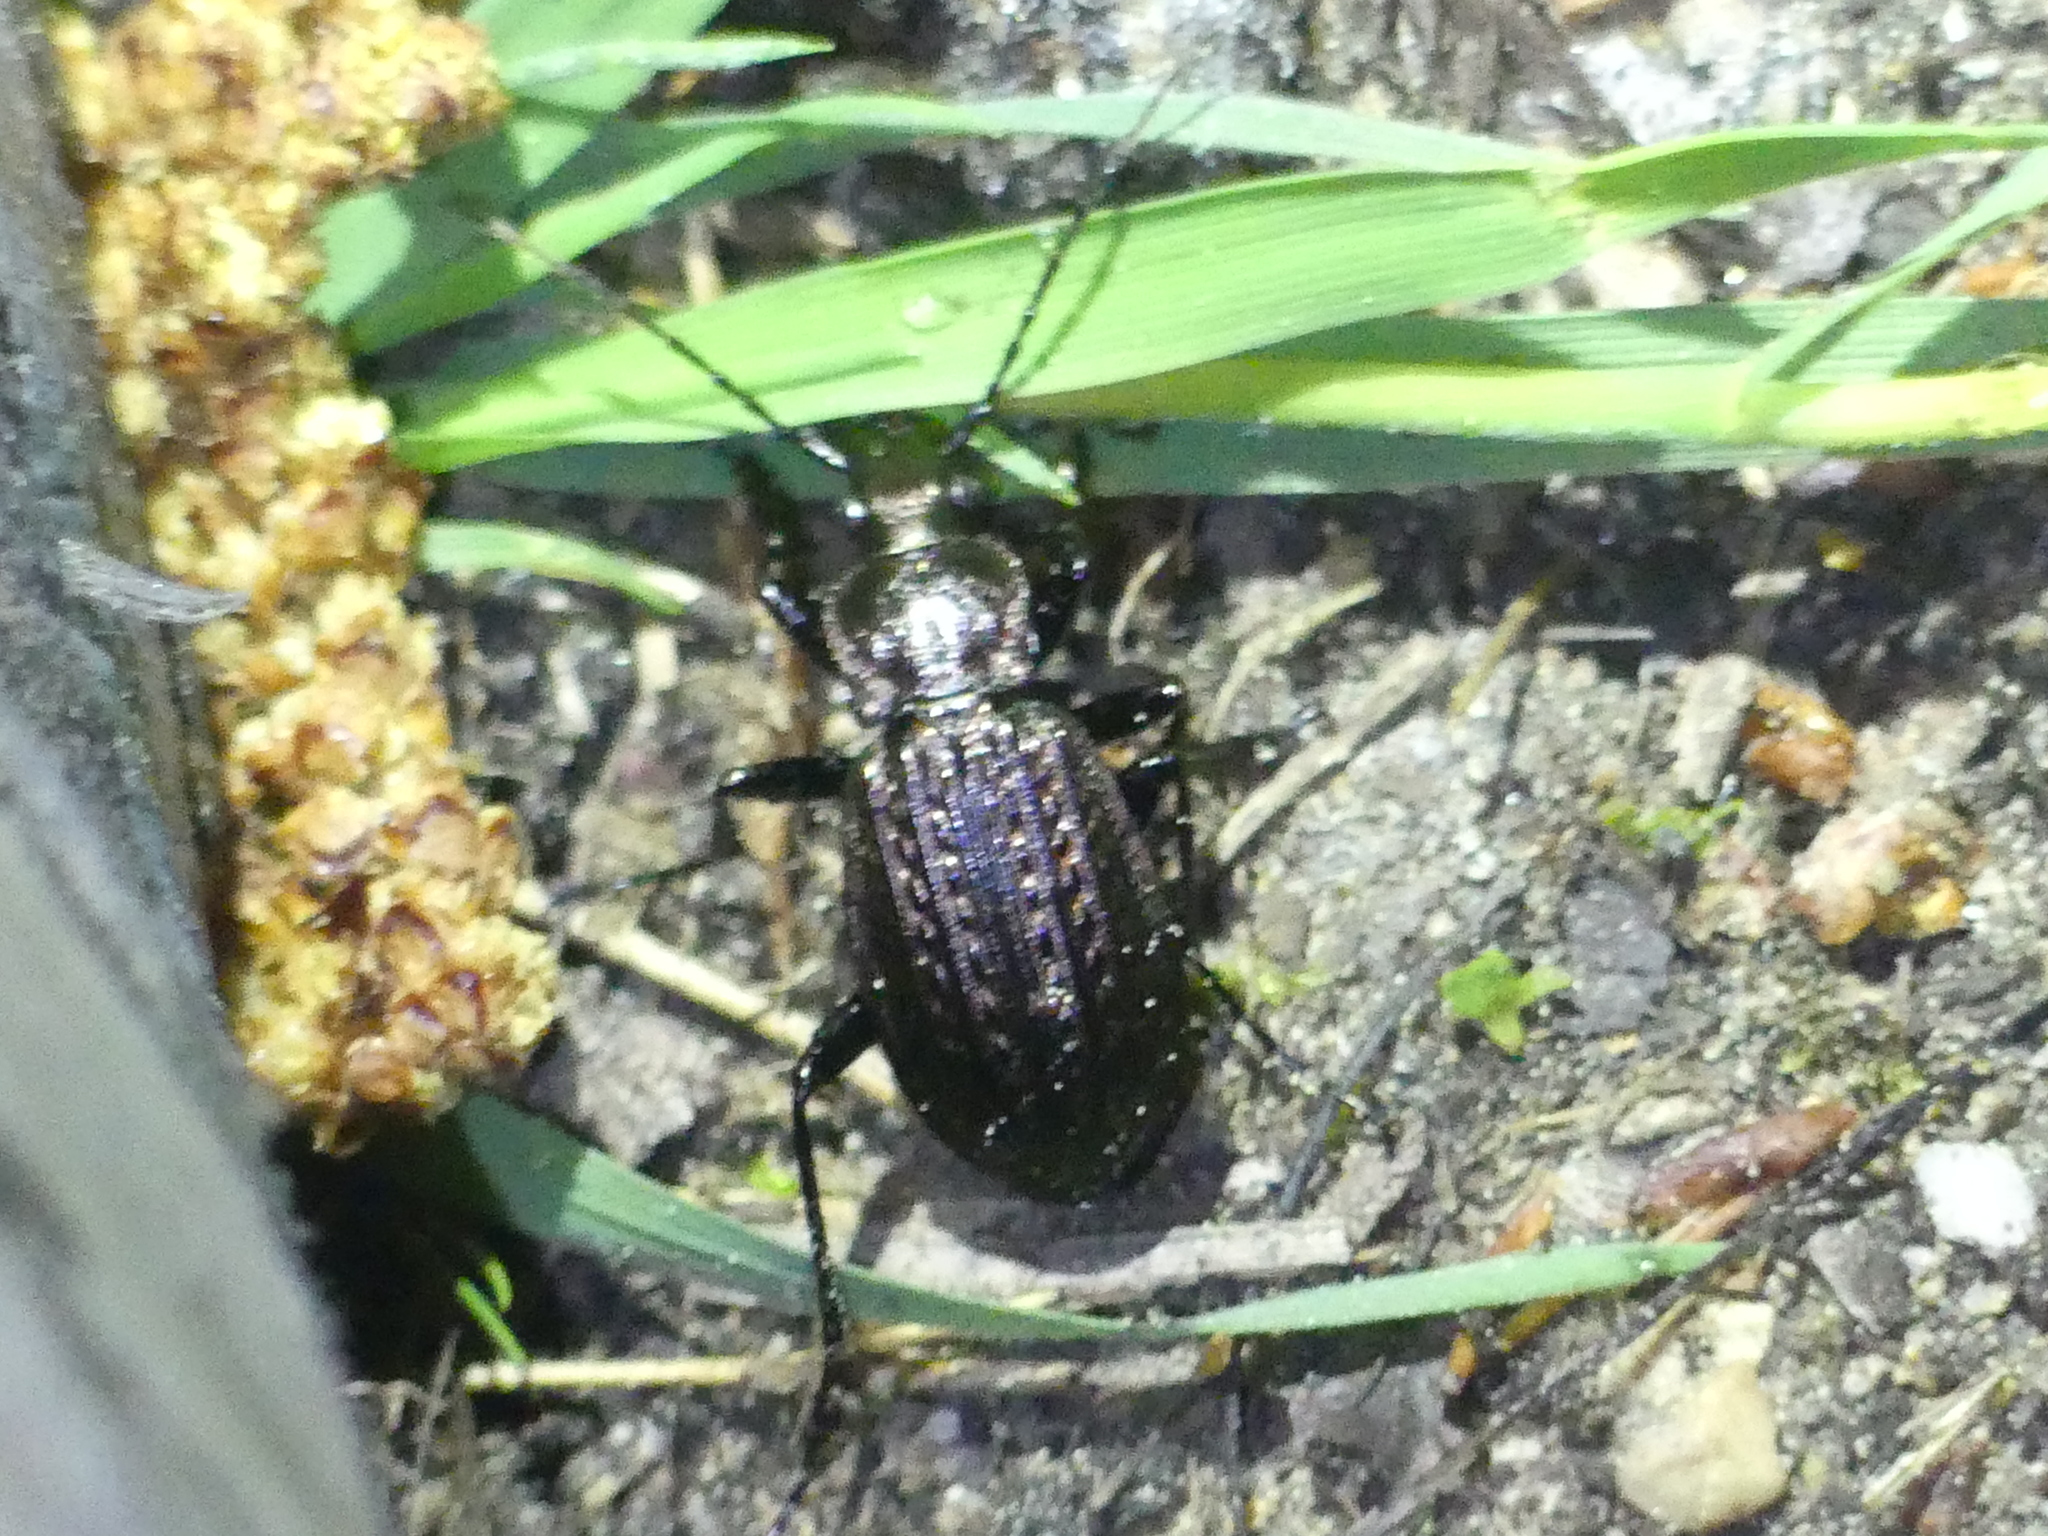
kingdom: Animalia
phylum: Arthropoda
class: Insecta
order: Coleoptera
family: Carabidae
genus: Carabus
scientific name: Carabus granulatus
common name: Granulate ground beetle
